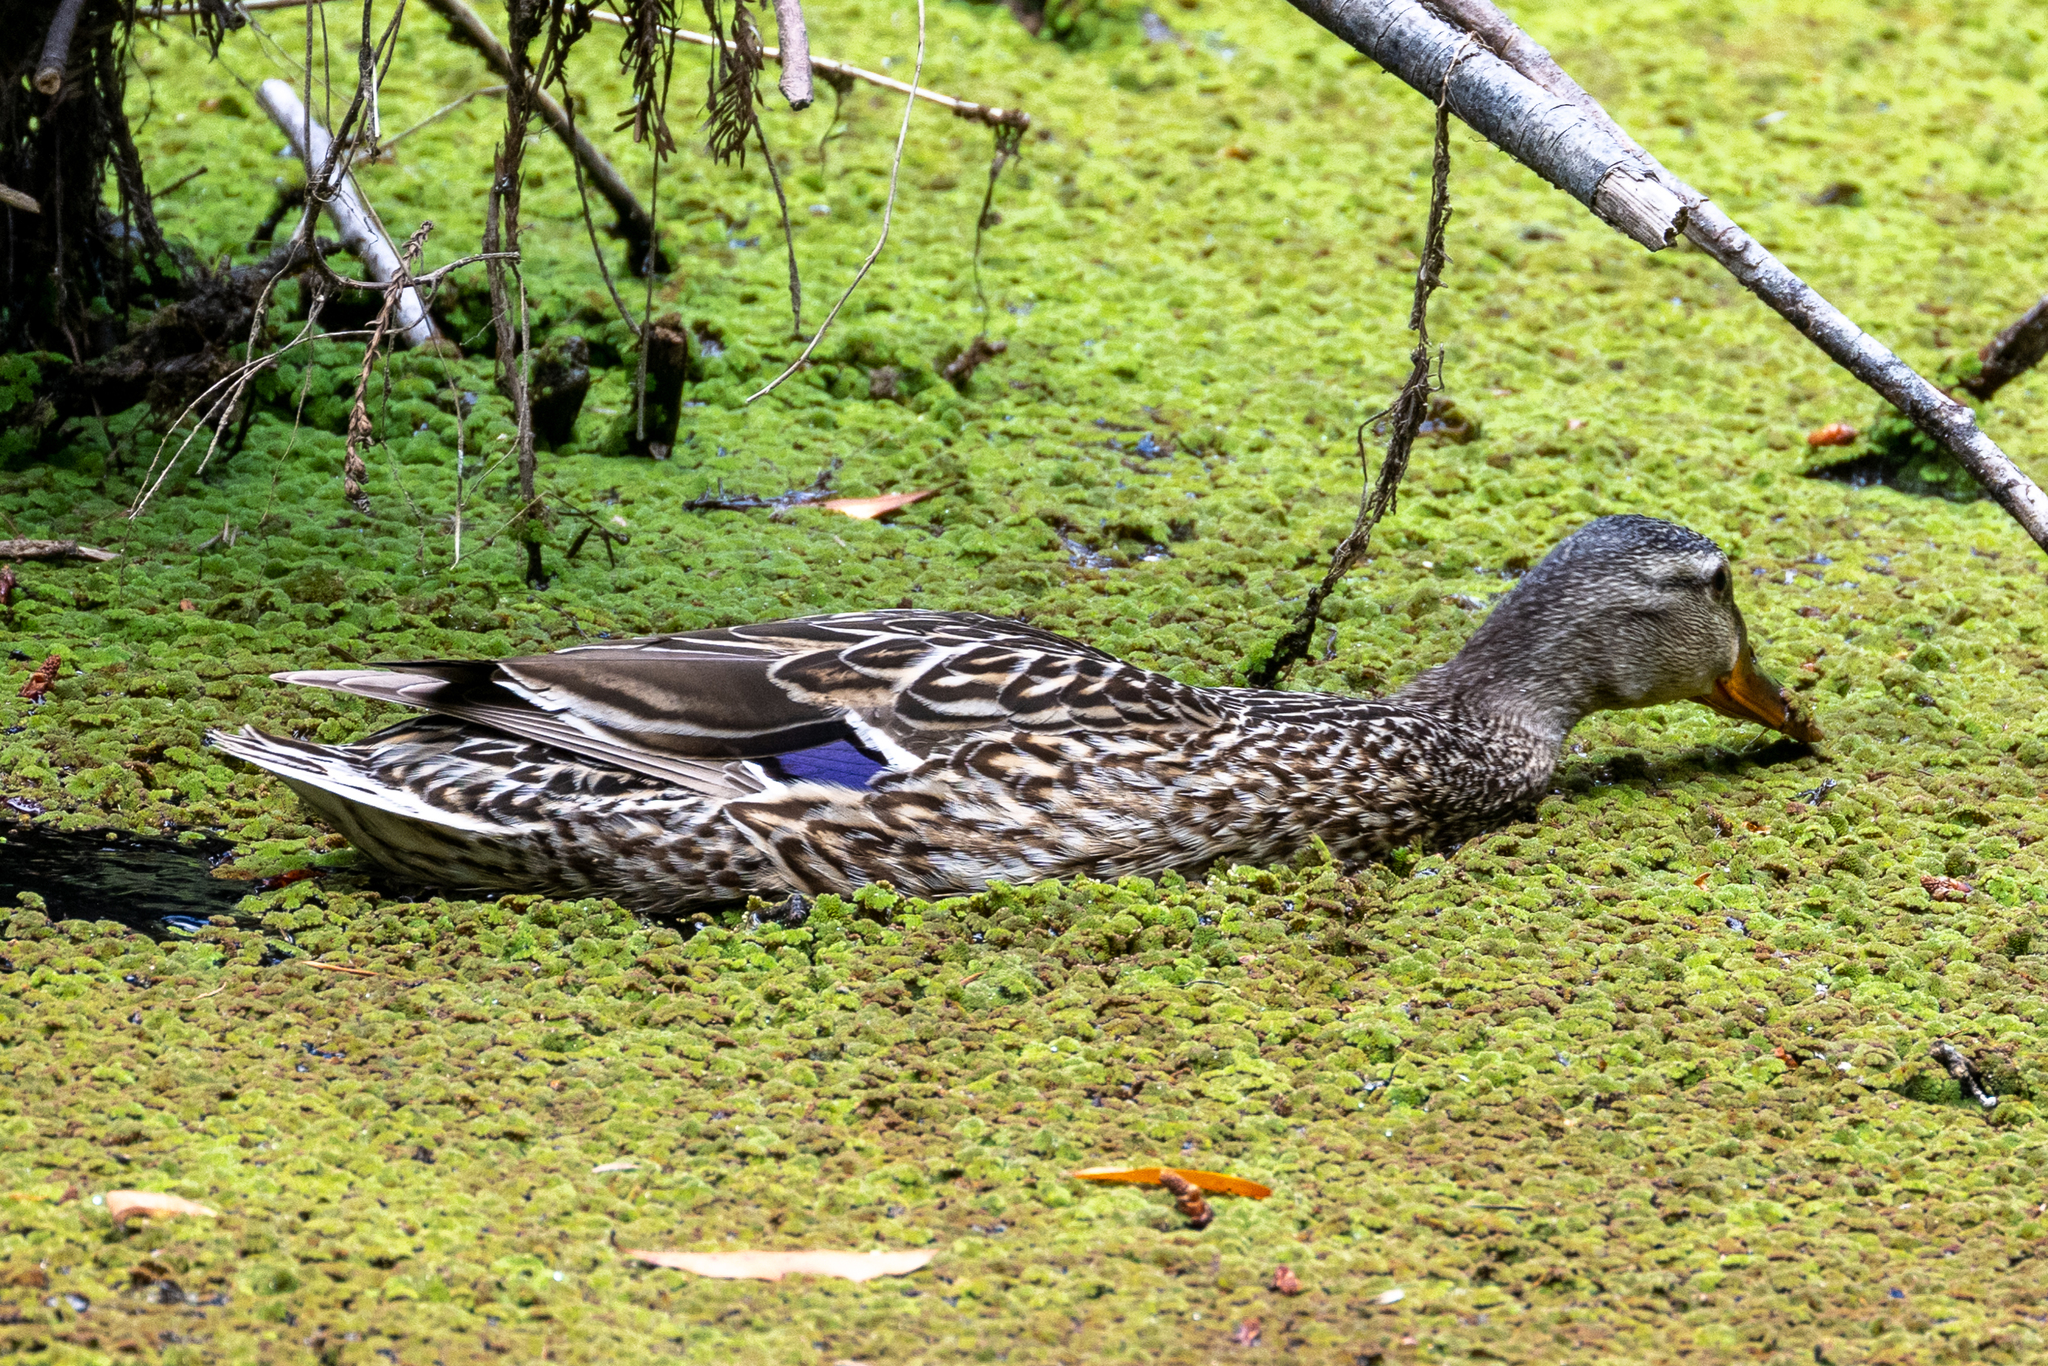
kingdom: Animalia
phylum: Chordata
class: Aves
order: Anseriformes
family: Anatidae
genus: Anas
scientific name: Anas platyrhynchos
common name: Mallard
